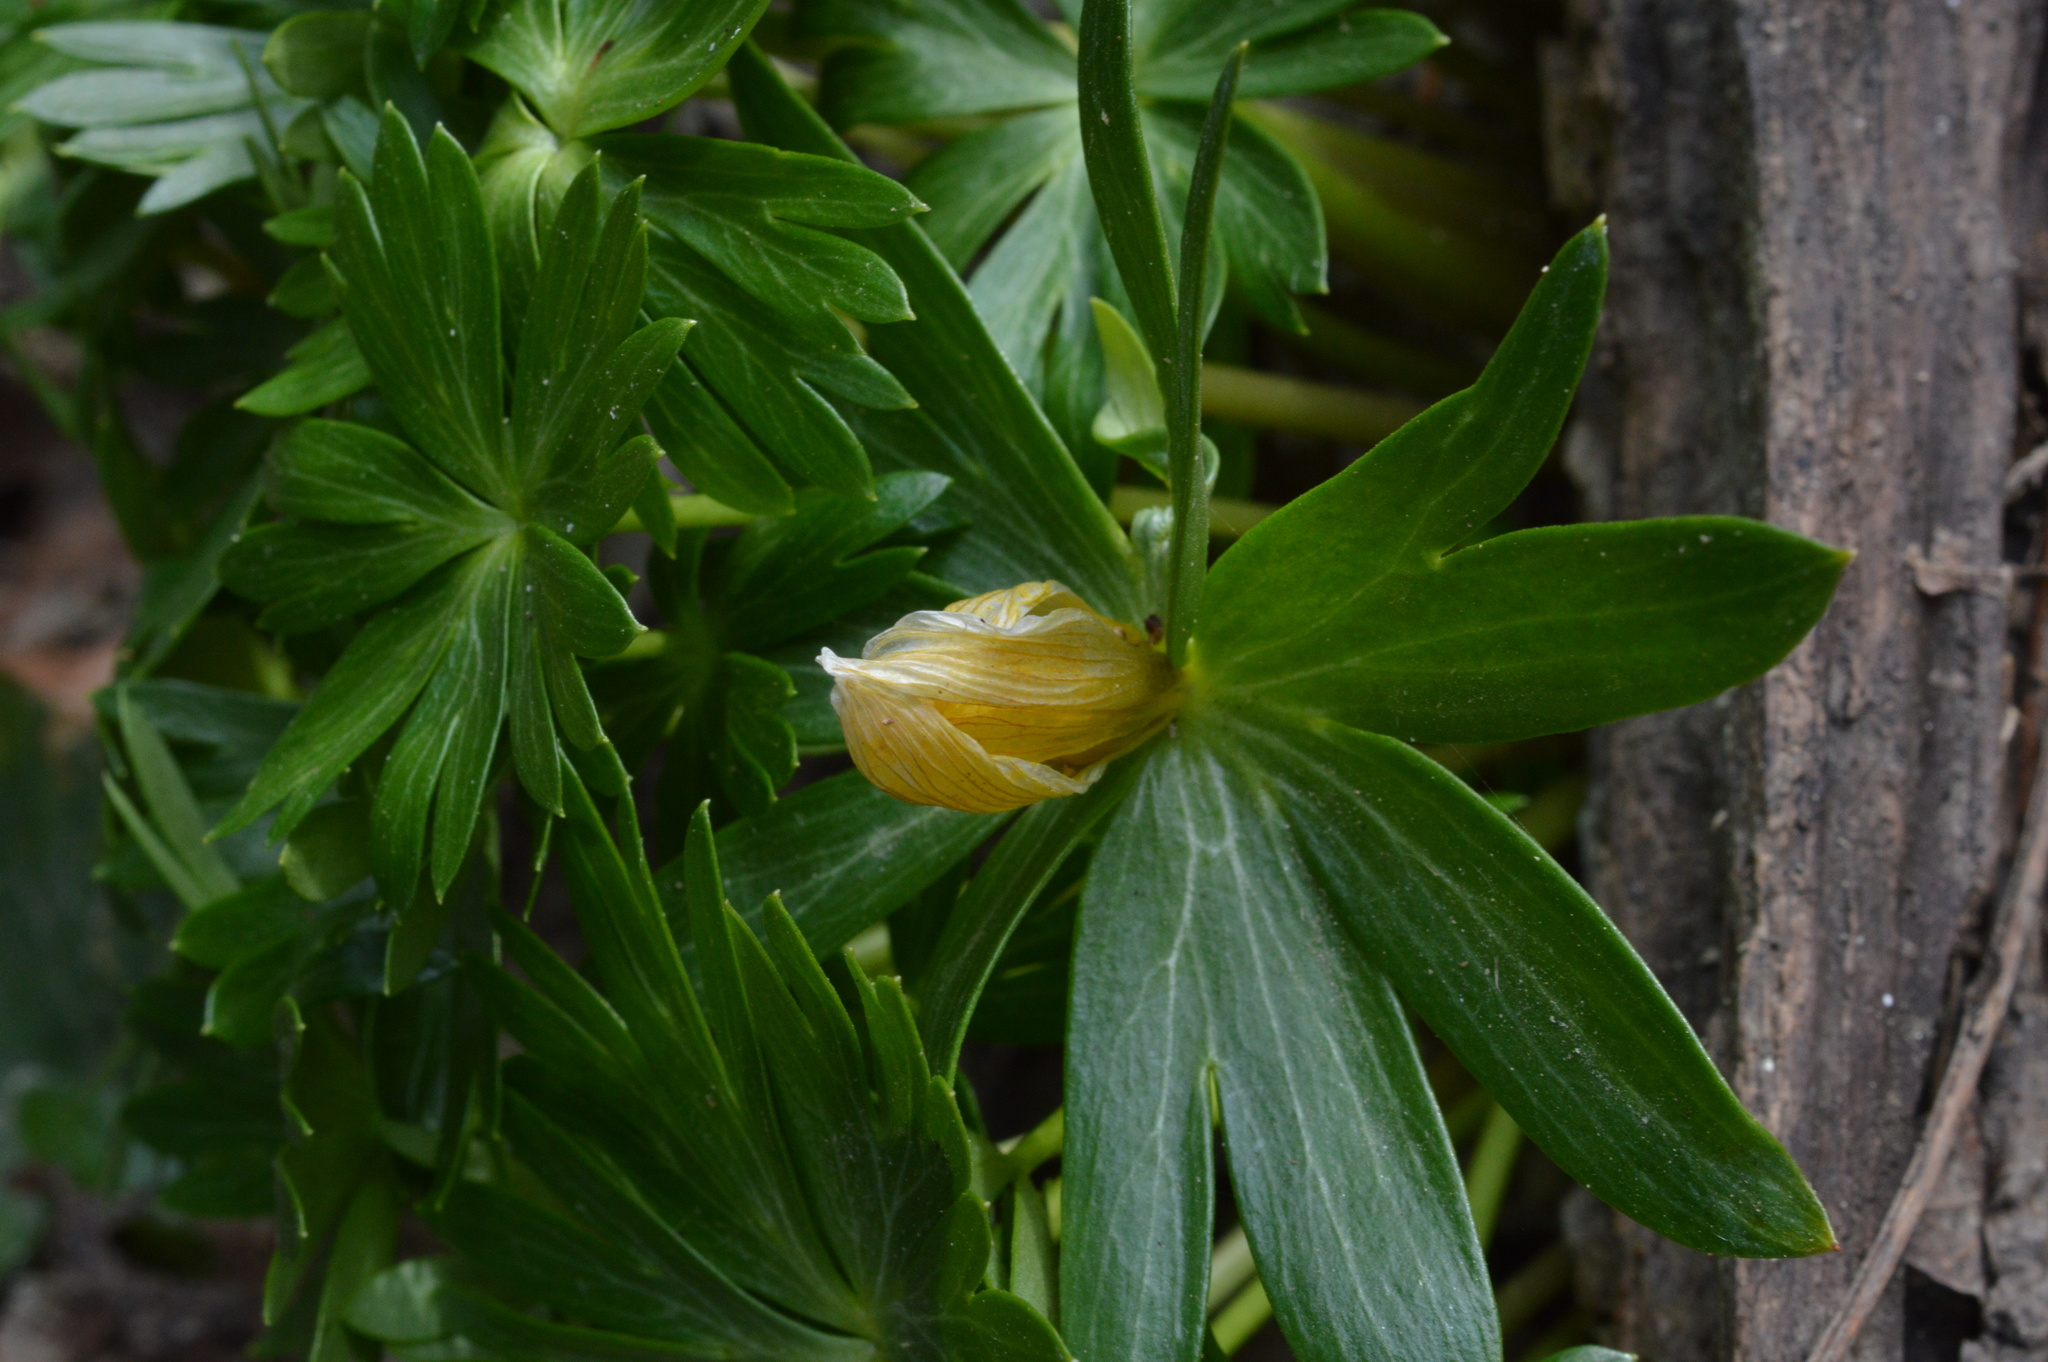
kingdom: Plantae
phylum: Tracheophyta
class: Magnoliopsida
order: Ranunculales
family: Ranunculaceae
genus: Eranthis
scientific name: Eranthis hyemalis
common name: Winter aconite
